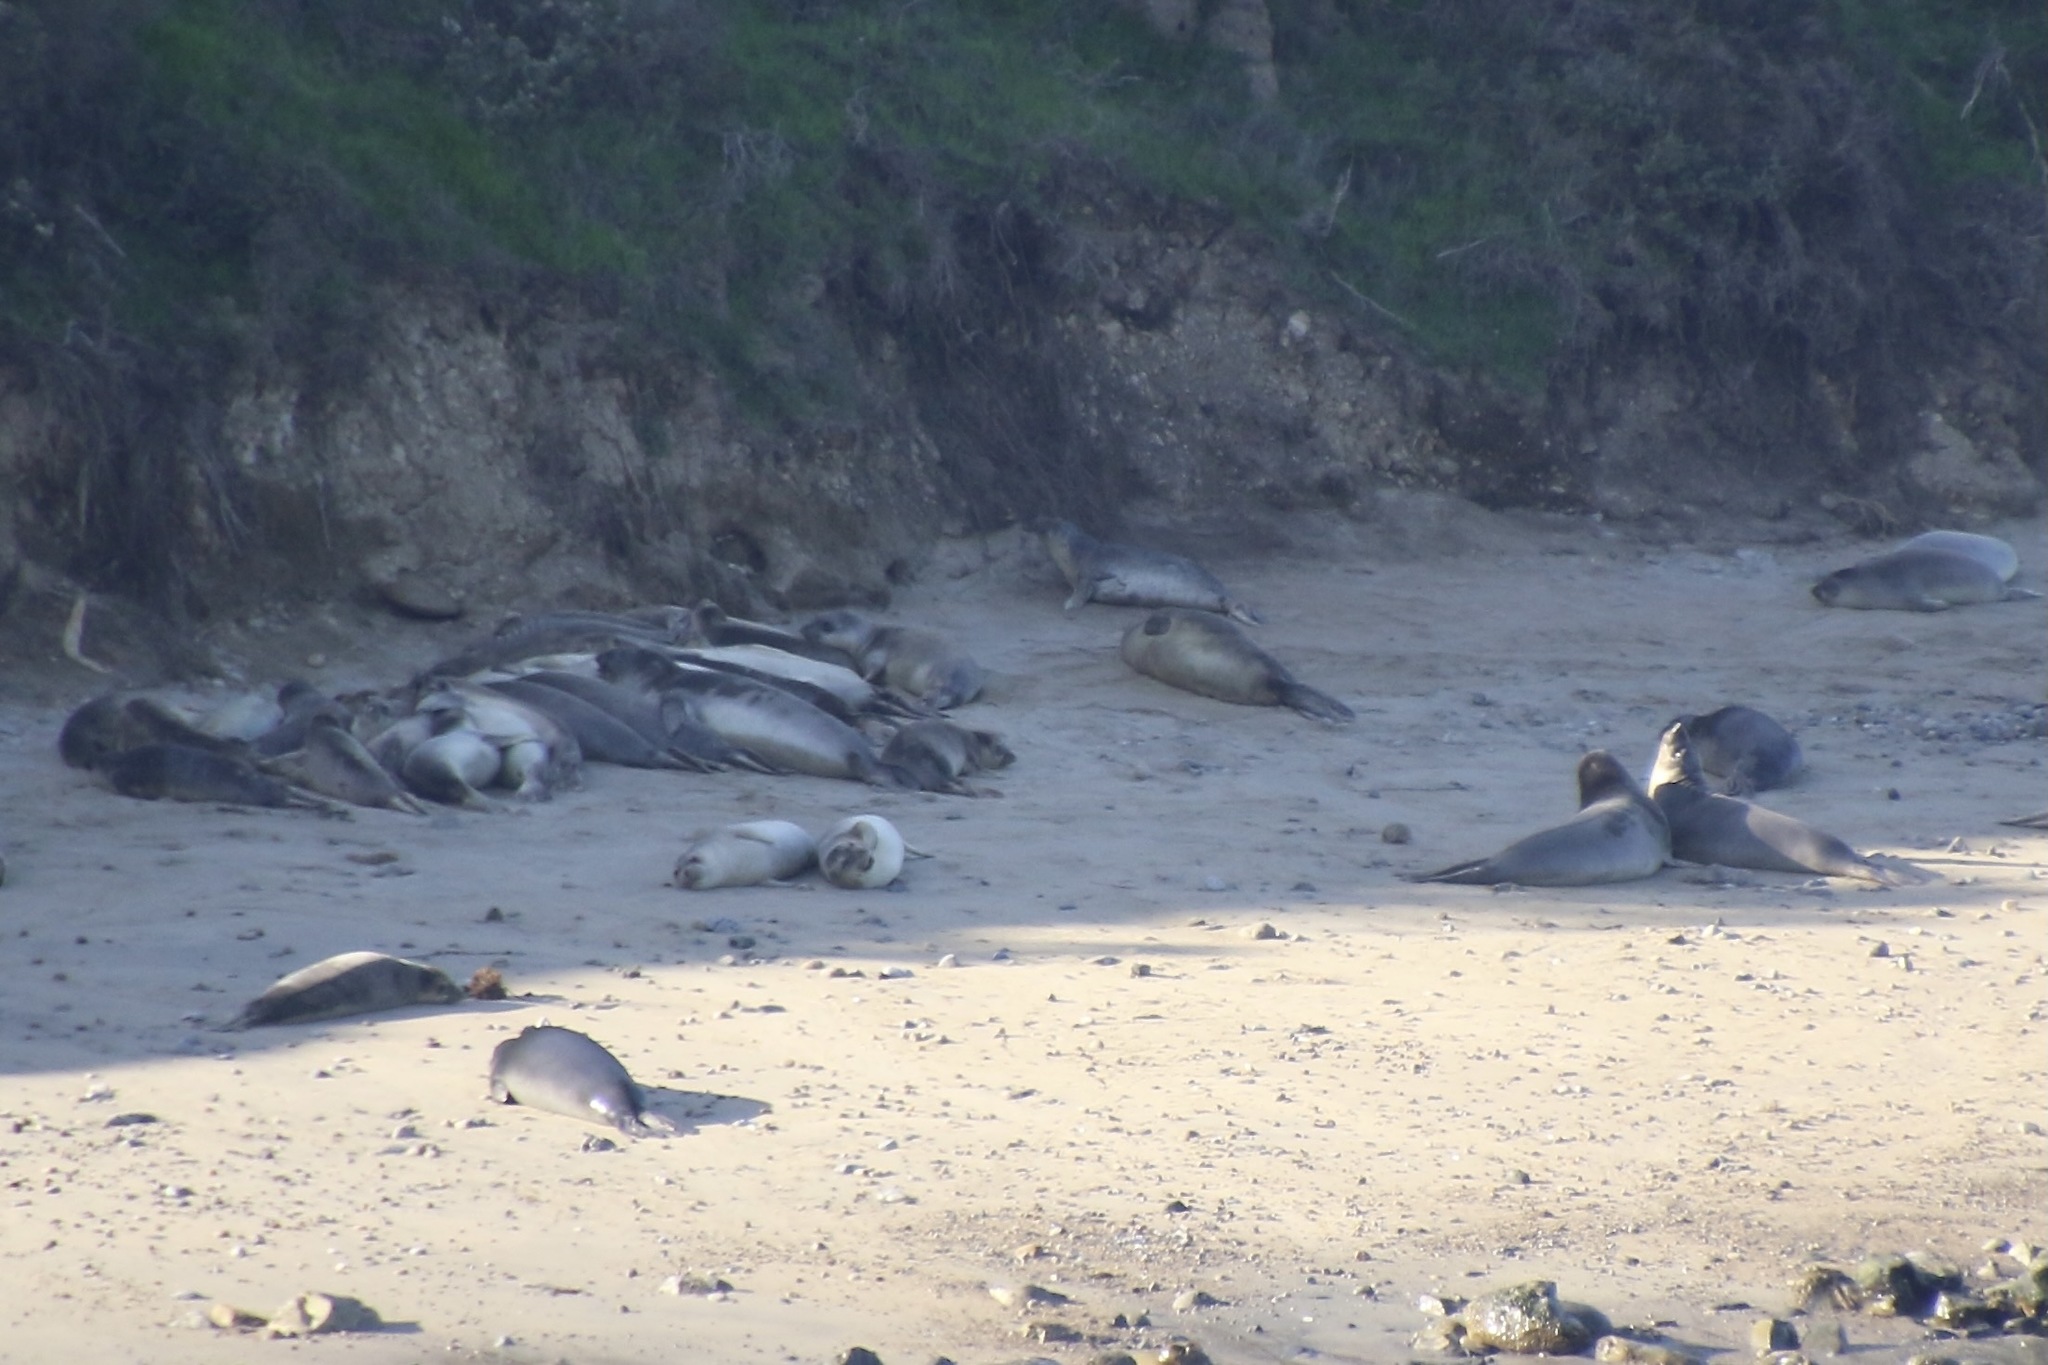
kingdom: Animalia
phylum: Chordata
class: Mammalia
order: Carnivora
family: Phocidae
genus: Mirounga
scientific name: Mirounga angustirostris
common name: Northern elephant seal
